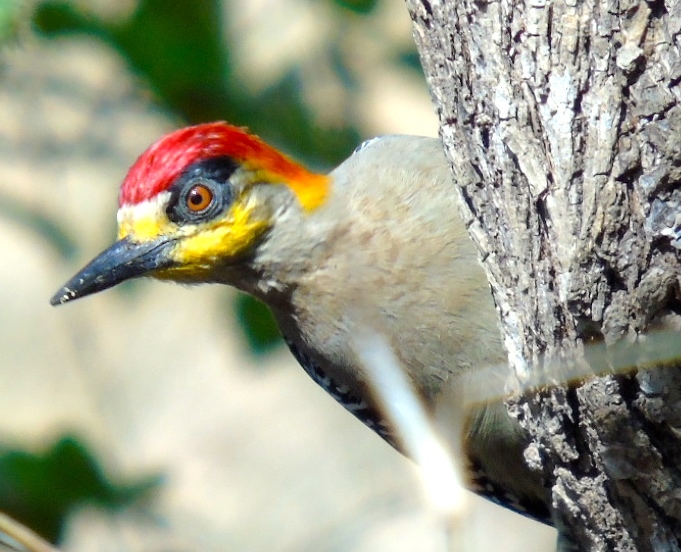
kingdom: Animalia
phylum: Chordata
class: Aves
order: Piciformes
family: Picidae
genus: Melanerpes
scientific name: Melanerpes chrysogenys
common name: Golden-cheeked woodpecker
